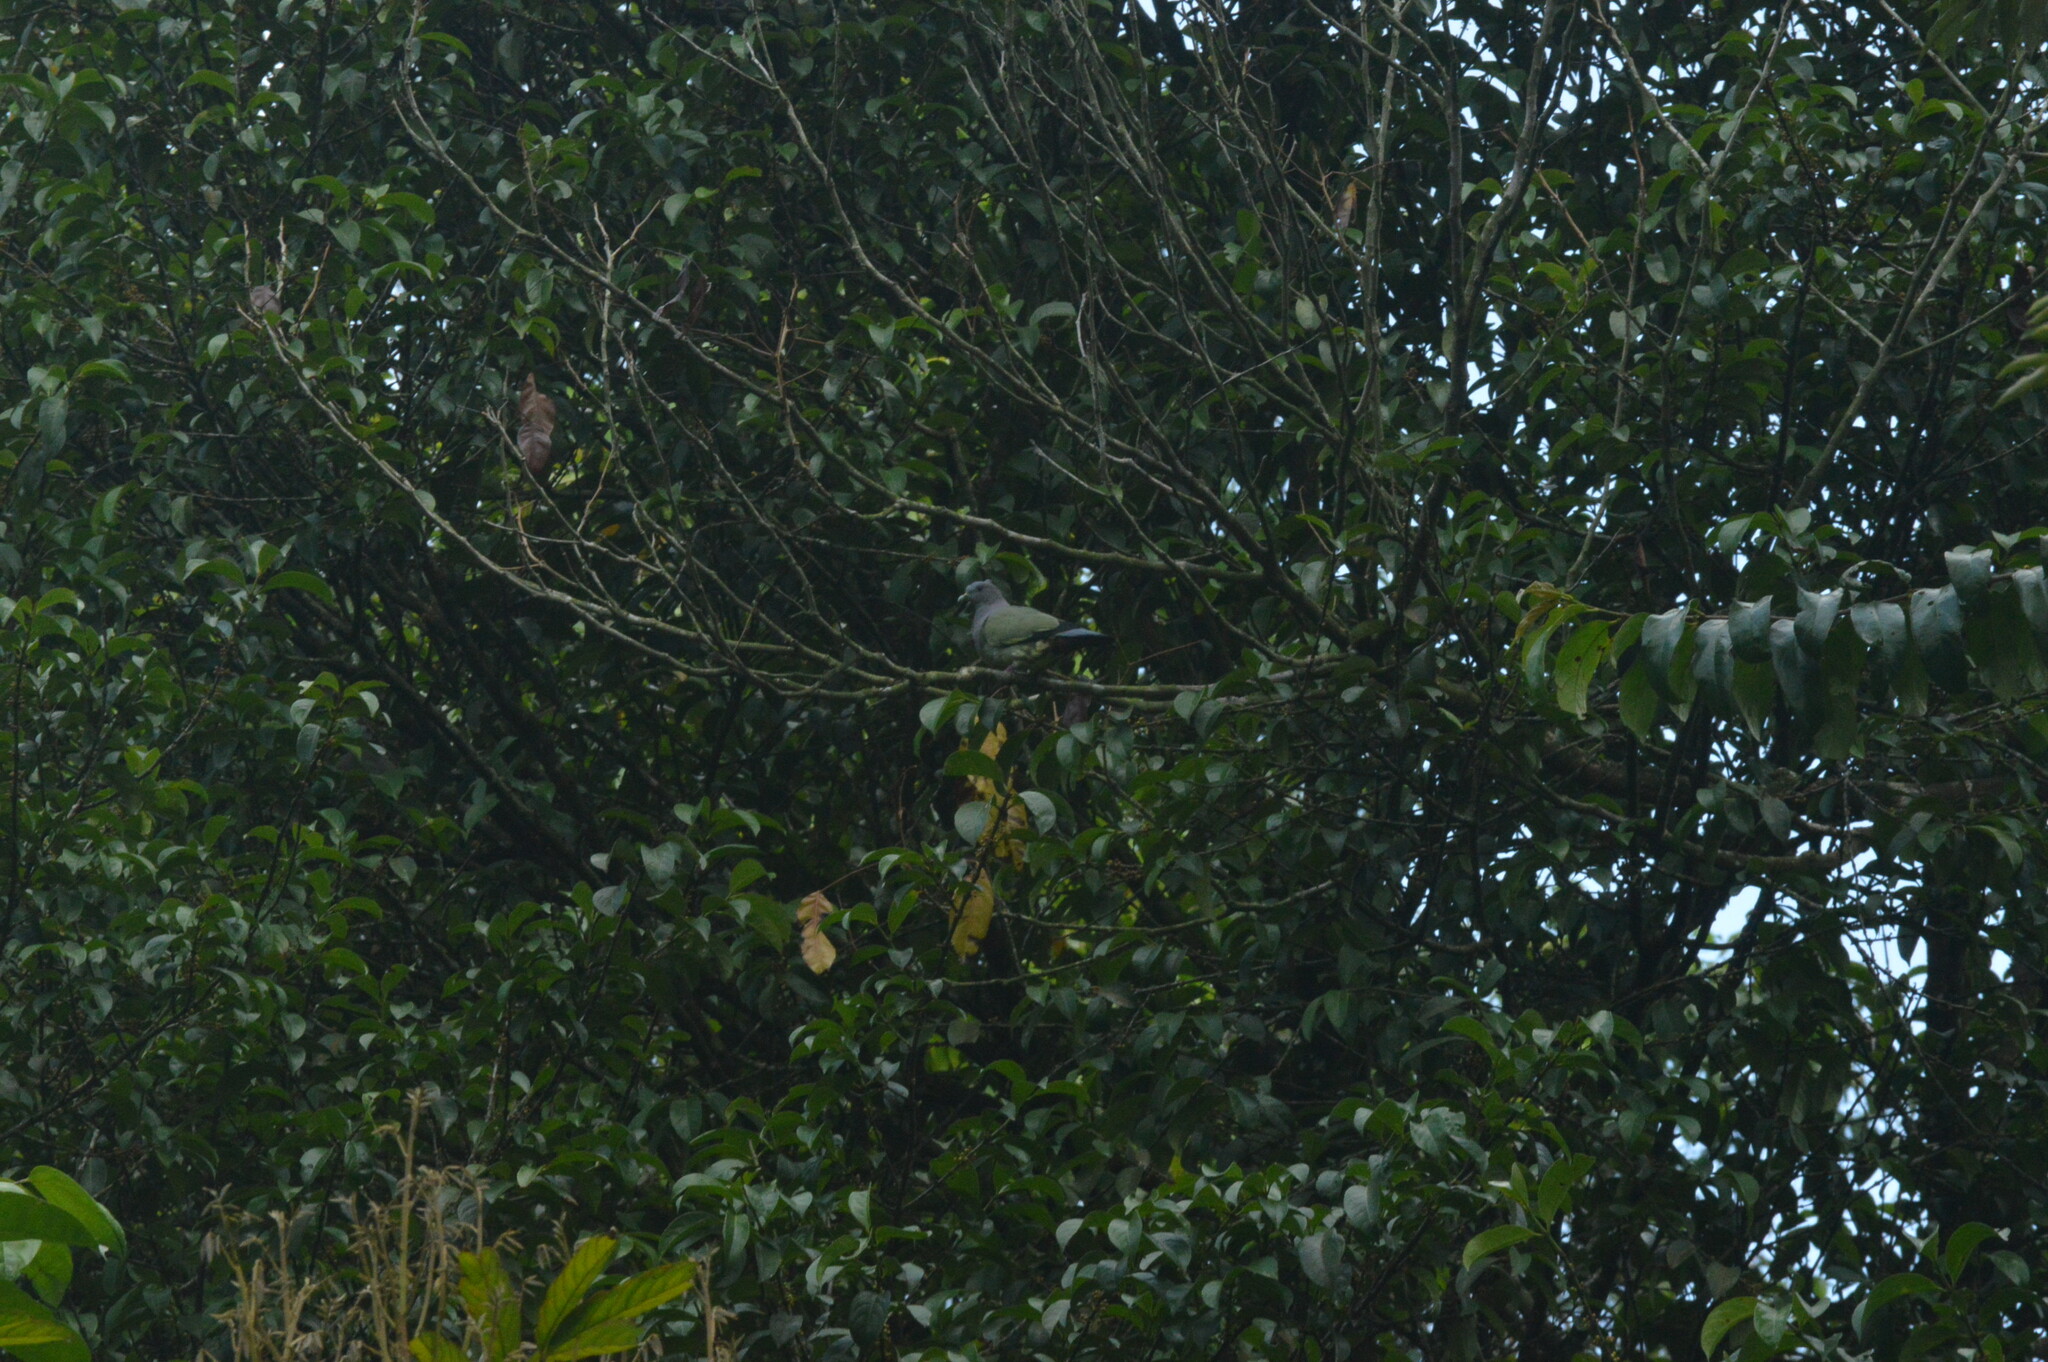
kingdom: Animalia
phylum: Chordata
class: Aves
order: Columbiformes
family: Columbidae
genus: Treron
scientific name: Treron vernans
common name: Pink-necked green pigeon
